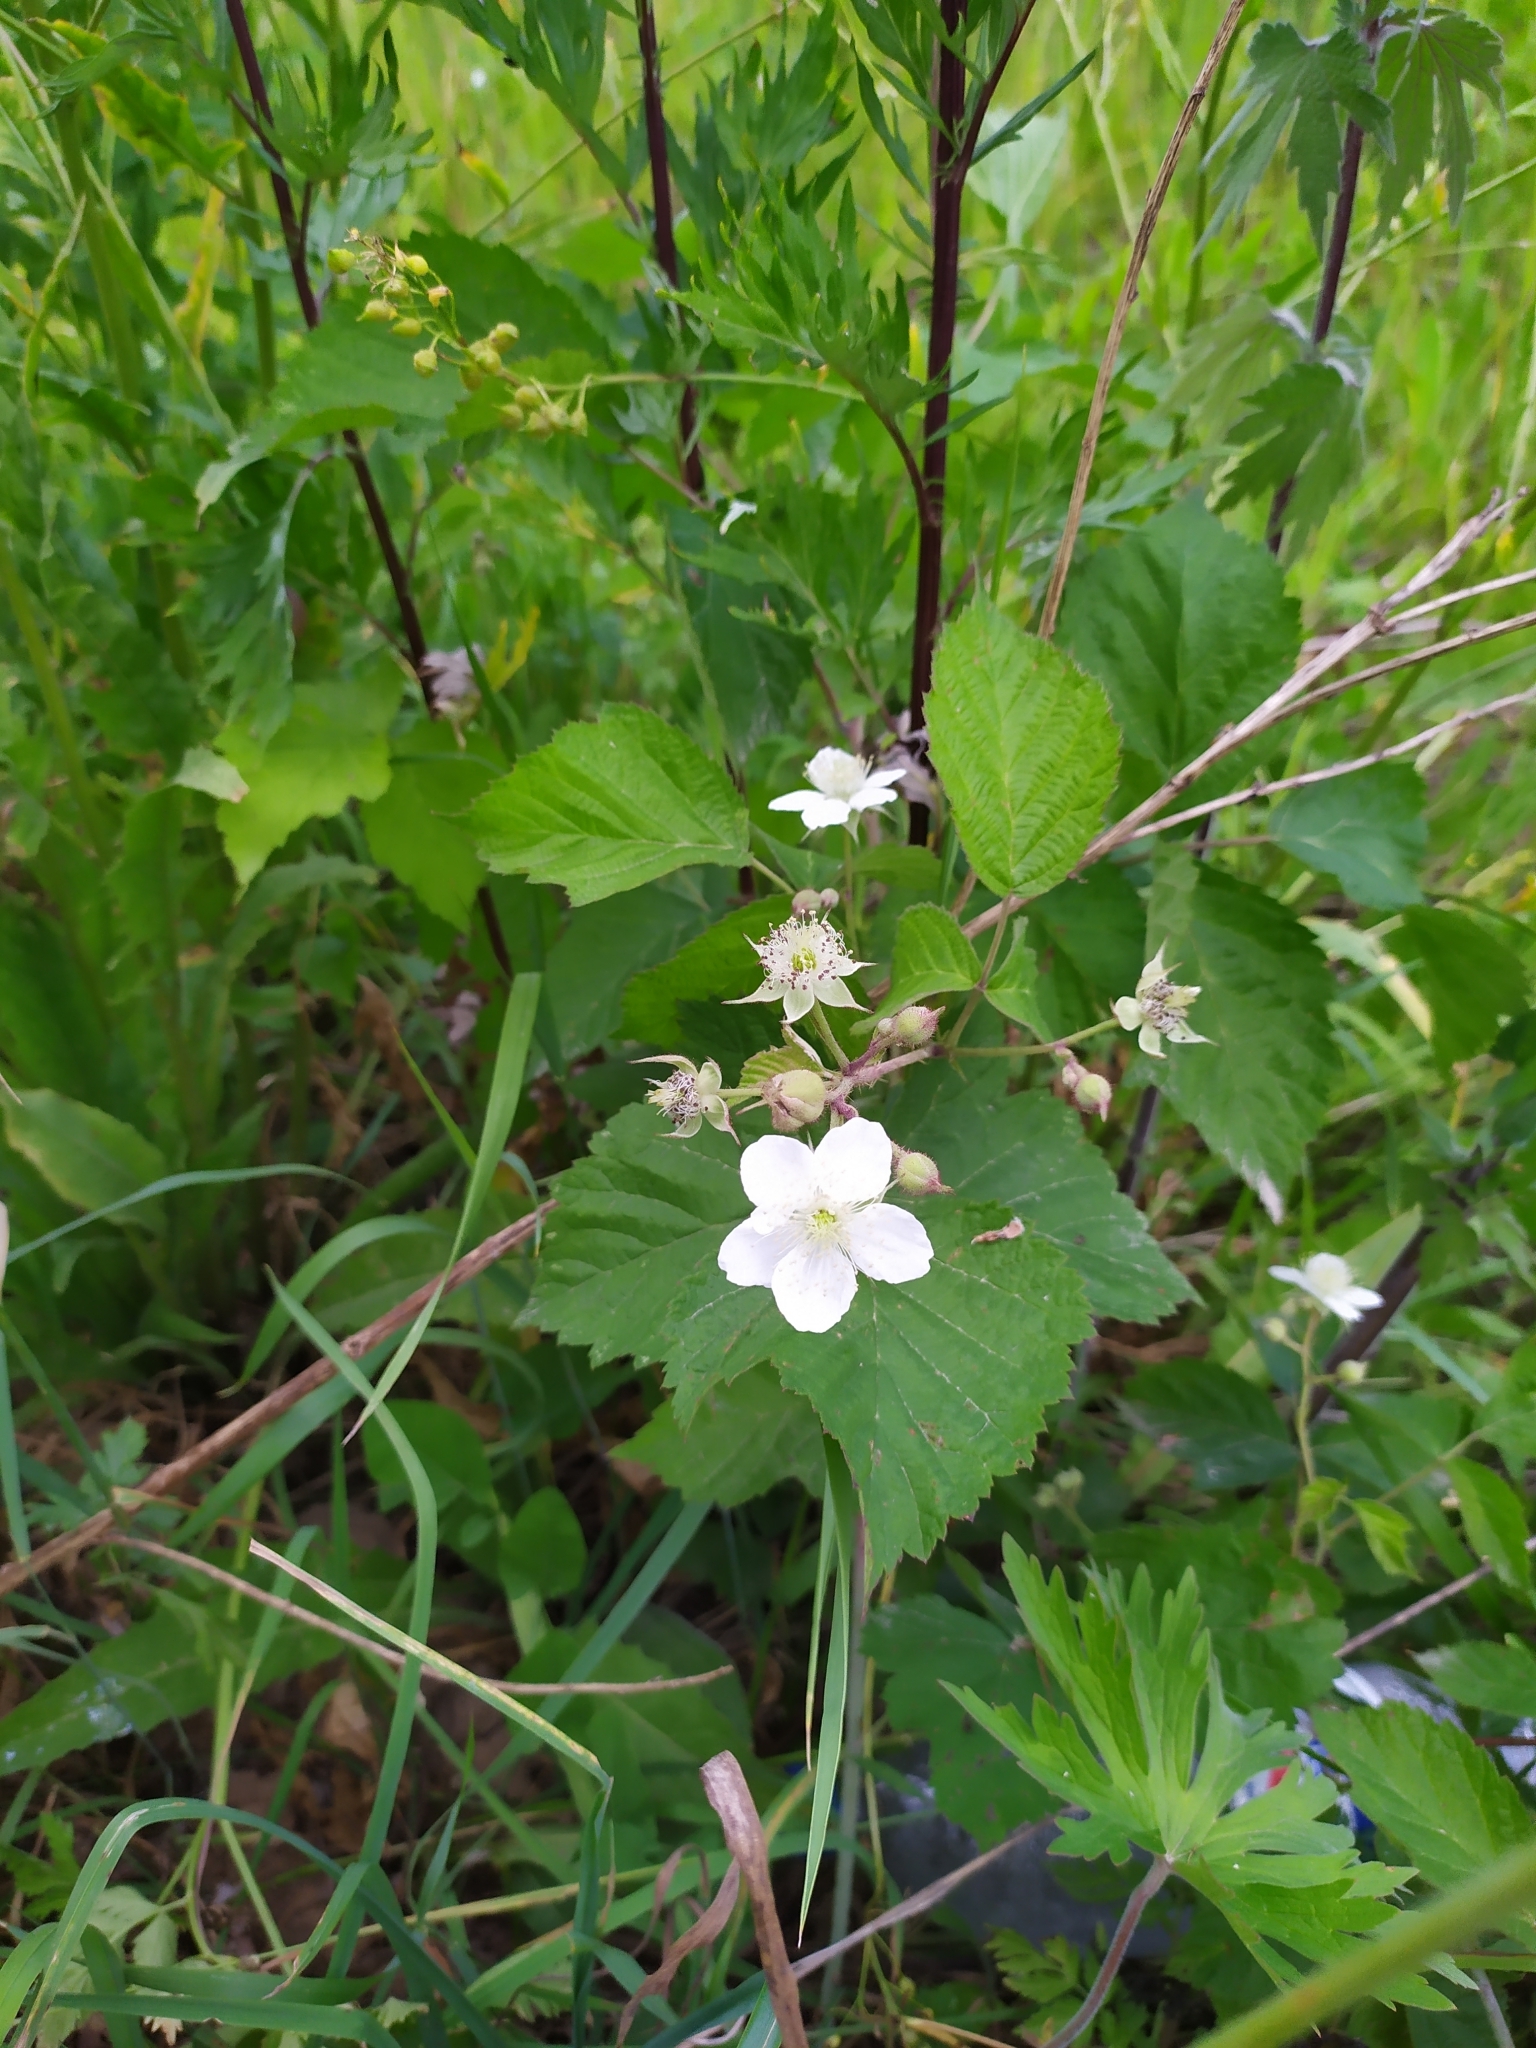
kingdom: Plantae
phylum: Tracheophyta
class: Magnoliopsida
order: Rosales
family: Rosaceae
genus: Rubus
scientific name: Rubus caesius
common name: Dewberry
